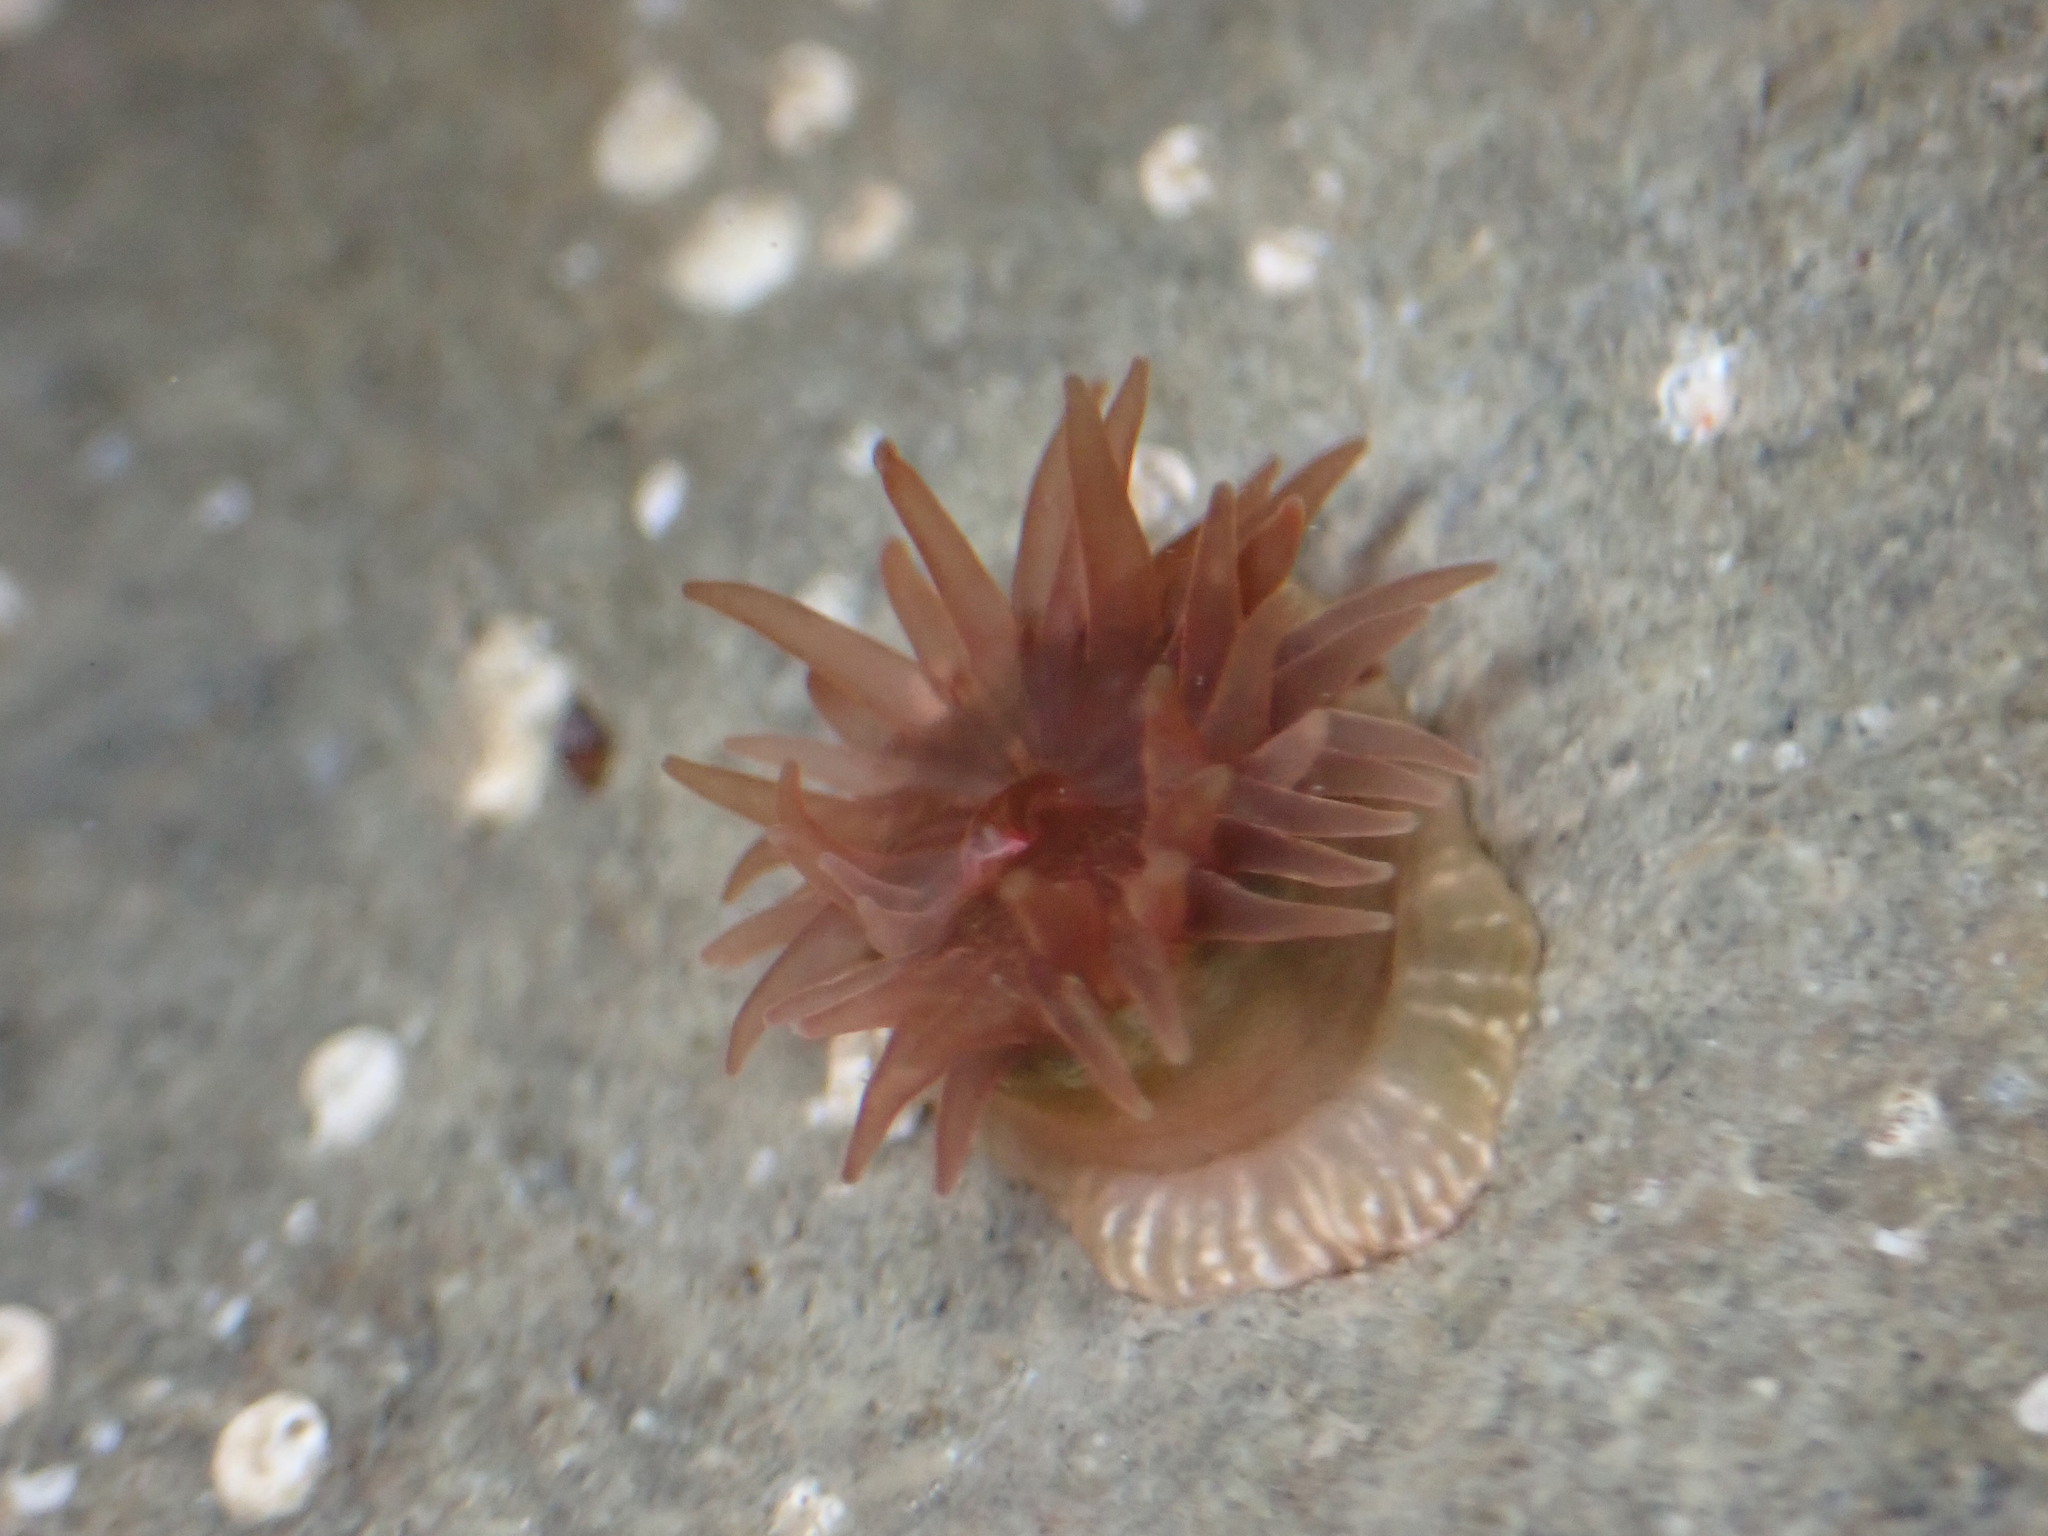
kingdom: Animalia
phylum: Cnidaria
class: Anthozoa
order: Actiniaria
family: Actiniidae
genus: Isactinia
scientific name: Isactinia olivacea
